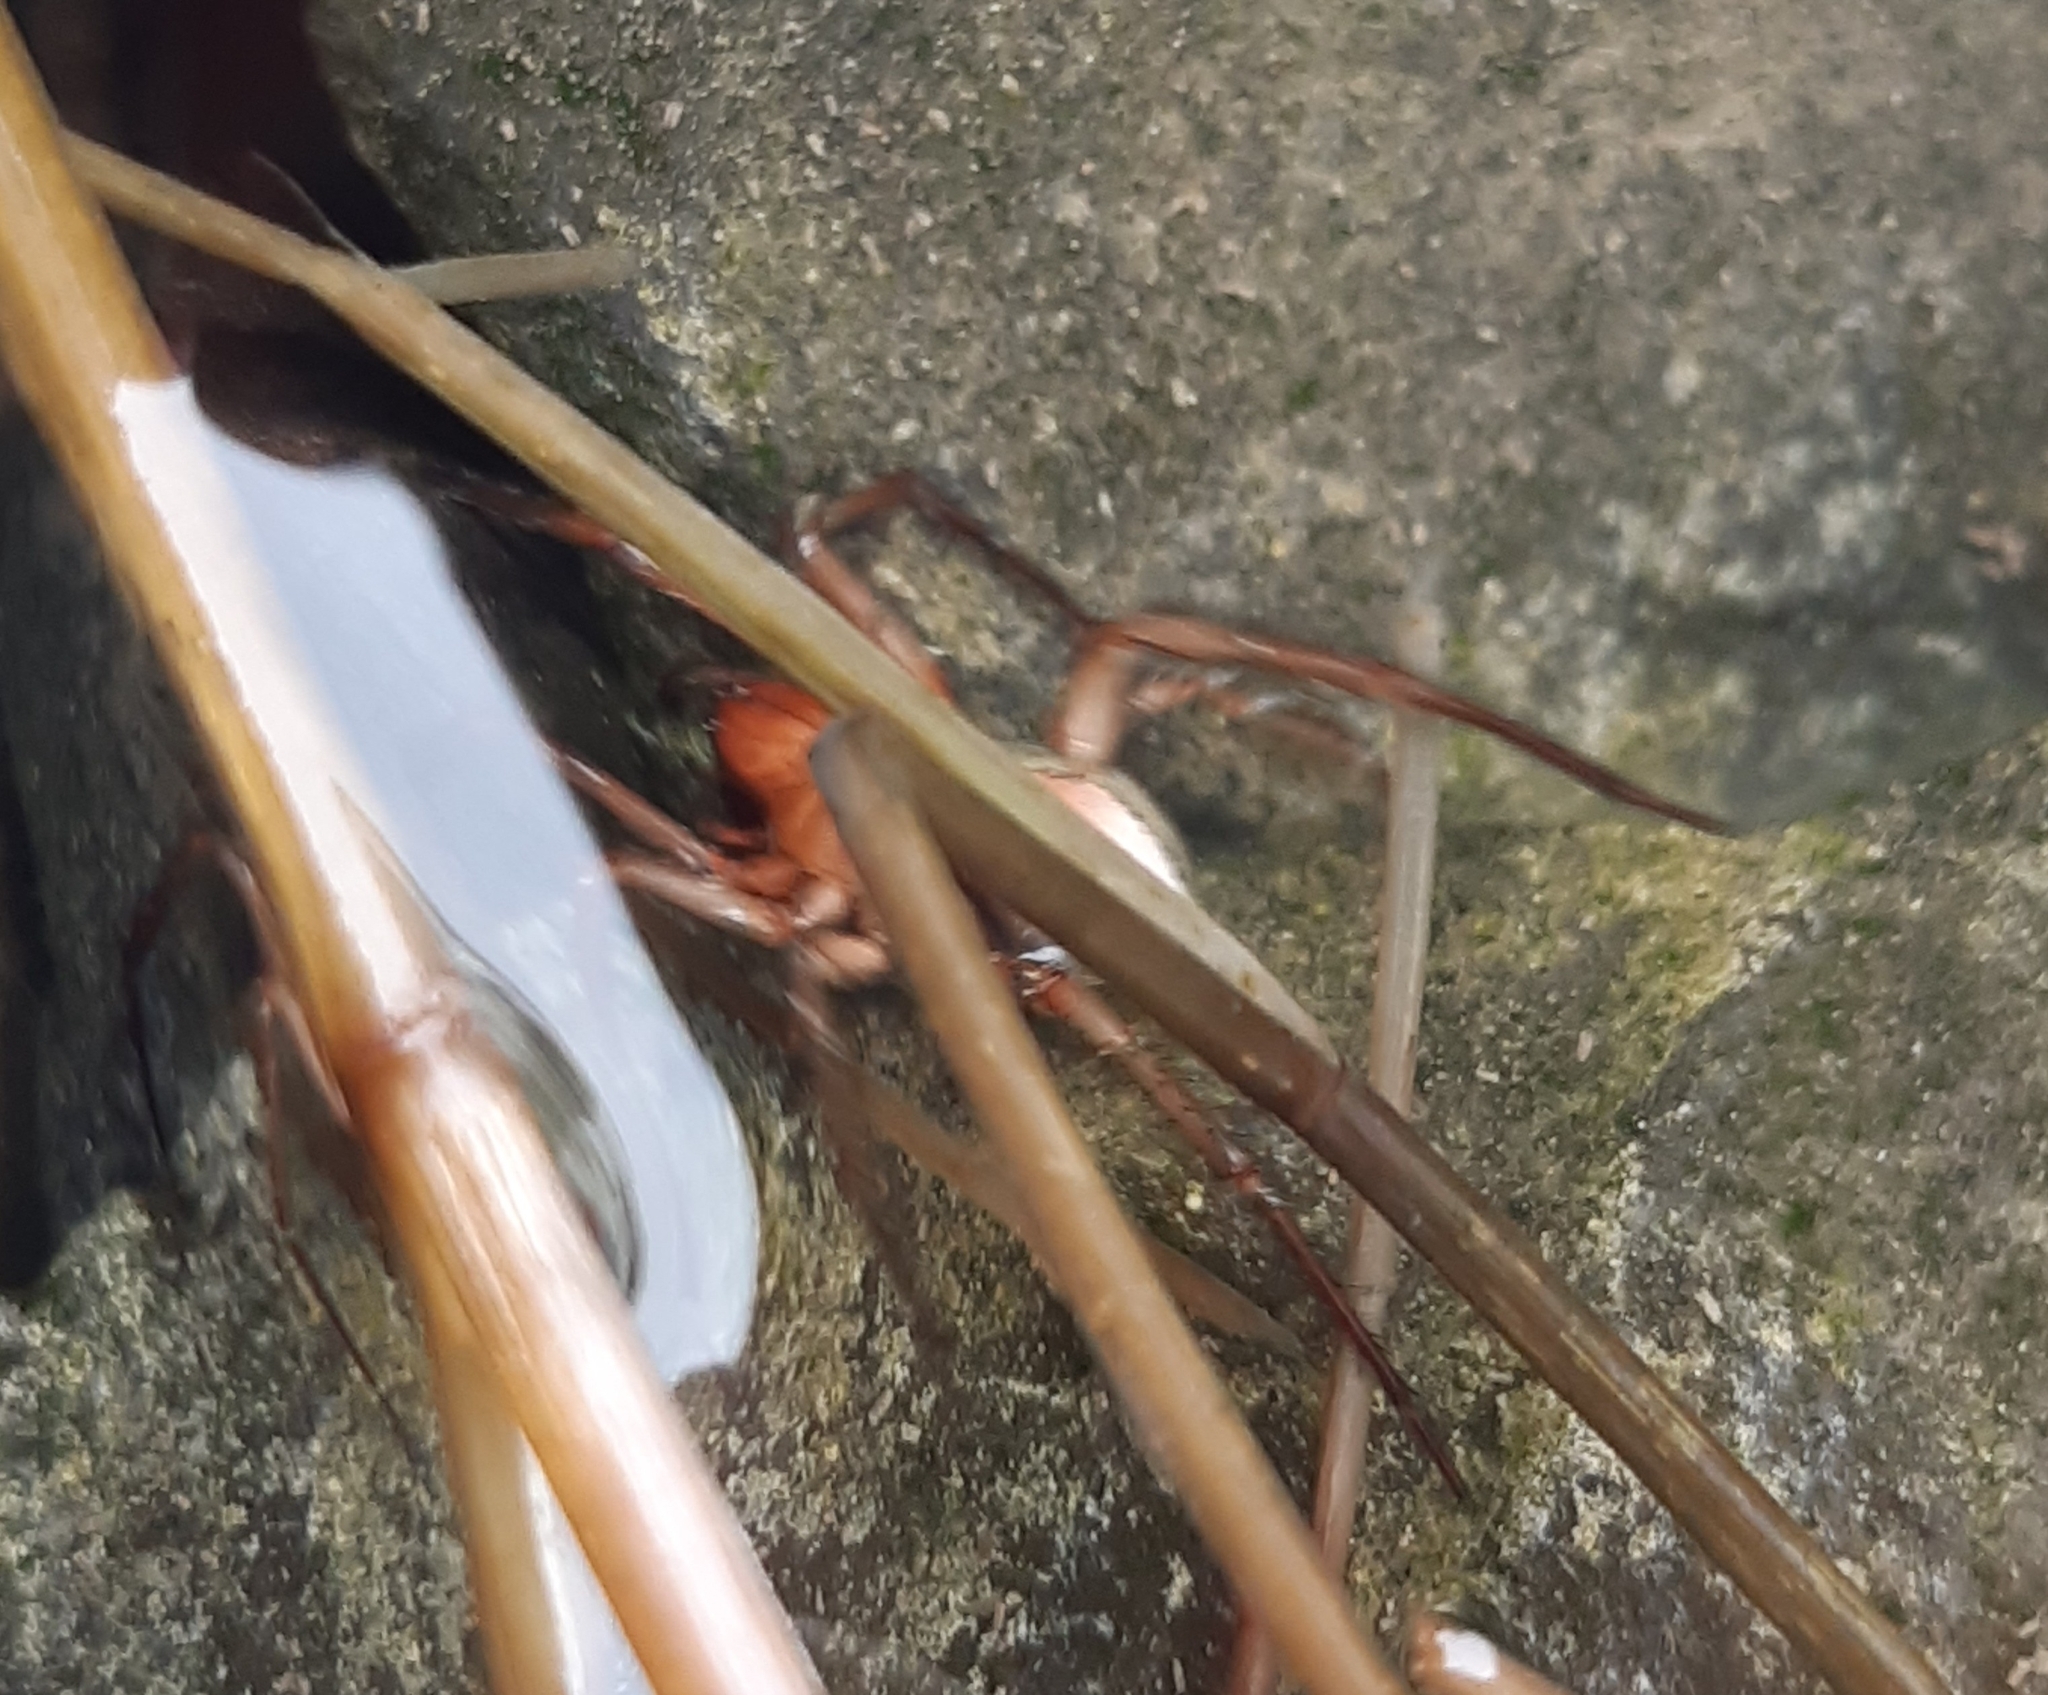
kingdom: Animalia
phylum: Arthropoda
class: Arachnida
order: Araneae
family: Dictynidae
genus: Argyroneta
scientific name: Argyroneta aquatica
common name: Water spider
